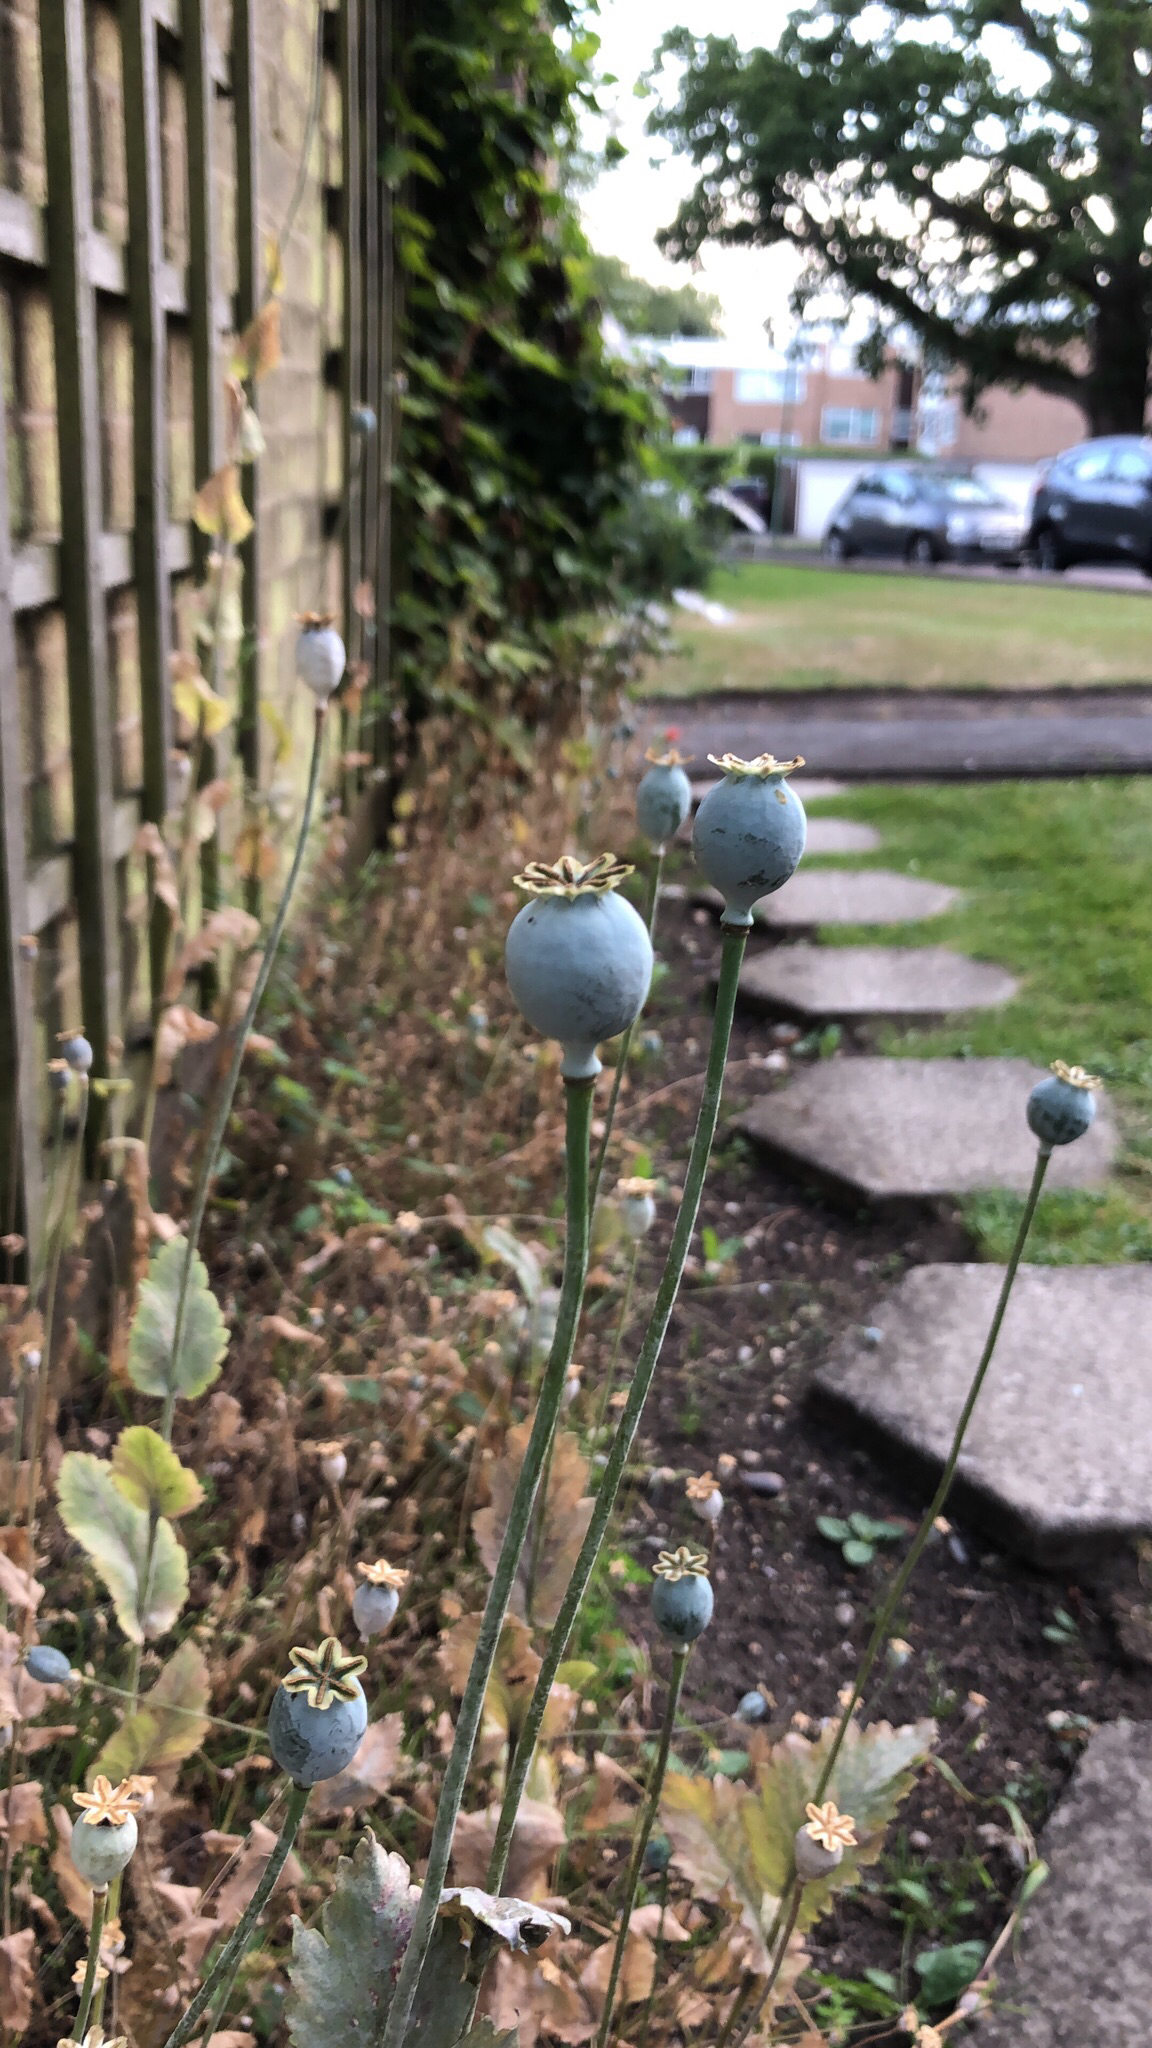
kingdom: Plantae
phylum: Tracheophyta
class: Magnoliopsida
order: Ranunculales
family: Papaveraceae
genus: Papaver
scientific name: Papaver somniferum
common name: Opium poppy
